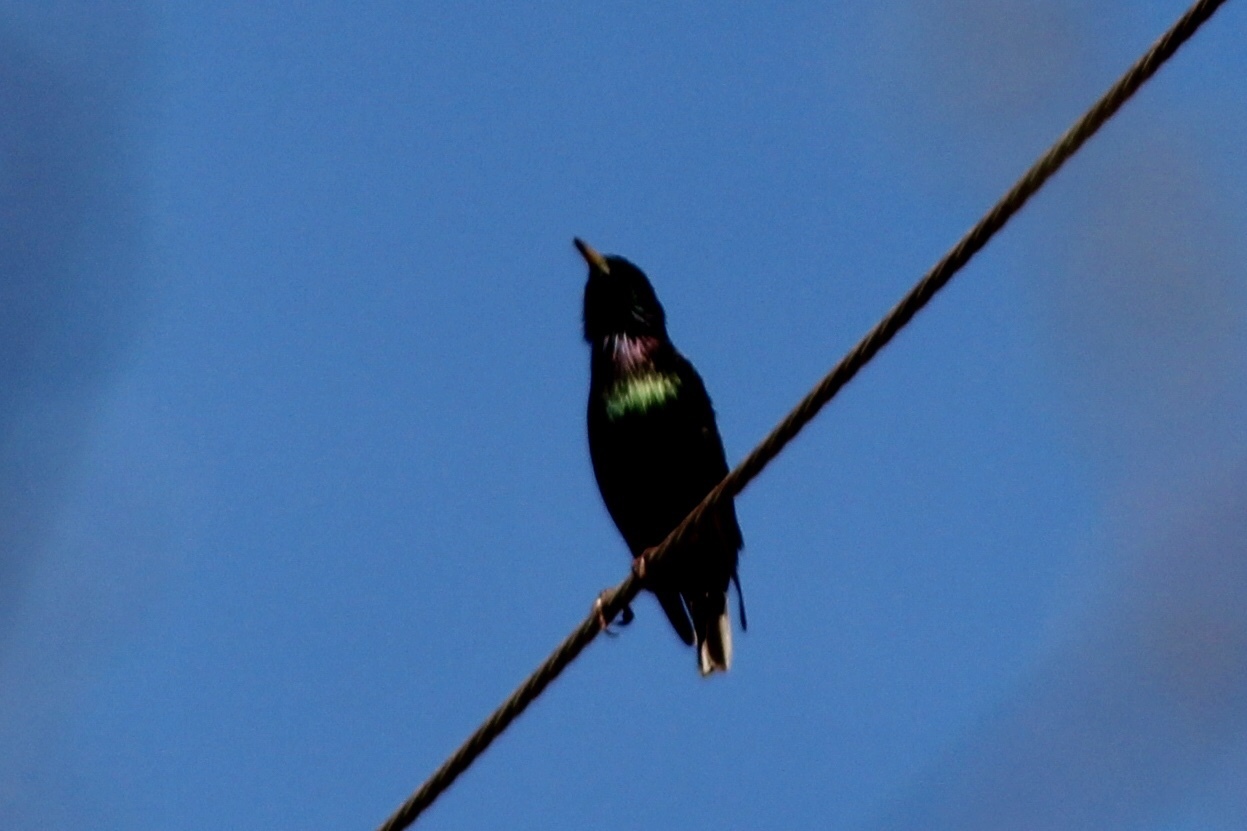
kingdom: Animalia
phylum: Chordata
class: Aves
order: Passeriformes
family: Sturnidae
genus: Sturnus
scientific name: Sturnus vulgaris
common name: Common starling
